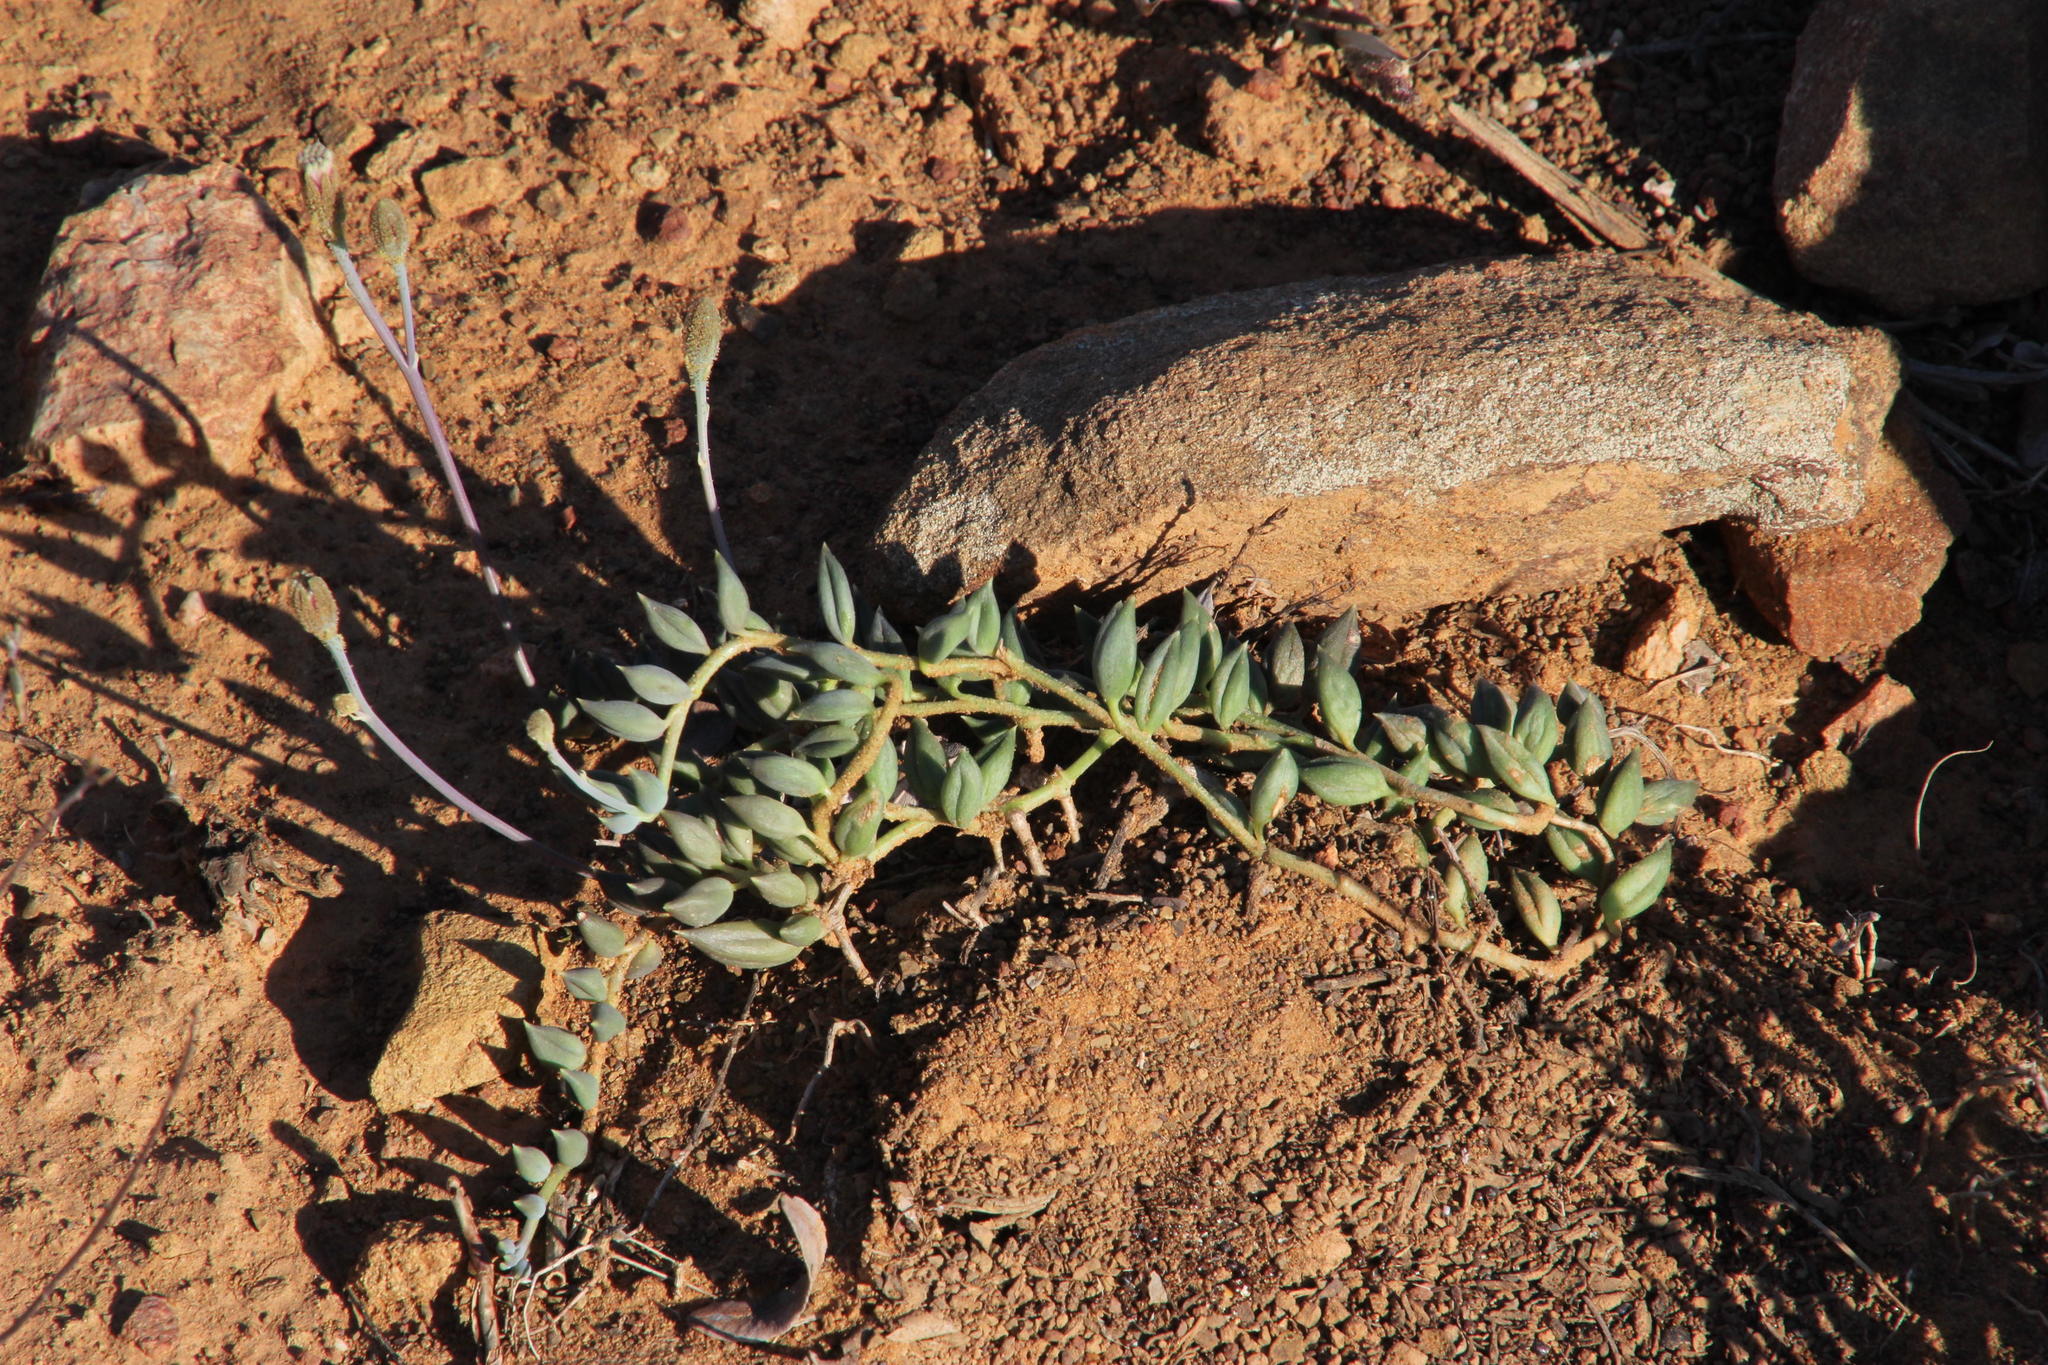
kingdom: Plantae
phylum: Tracheophyta
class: Magnoliopsida
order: Asterales
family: Asteraceae
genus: Curio
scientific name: Curio radicans
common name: Creeping-berry
